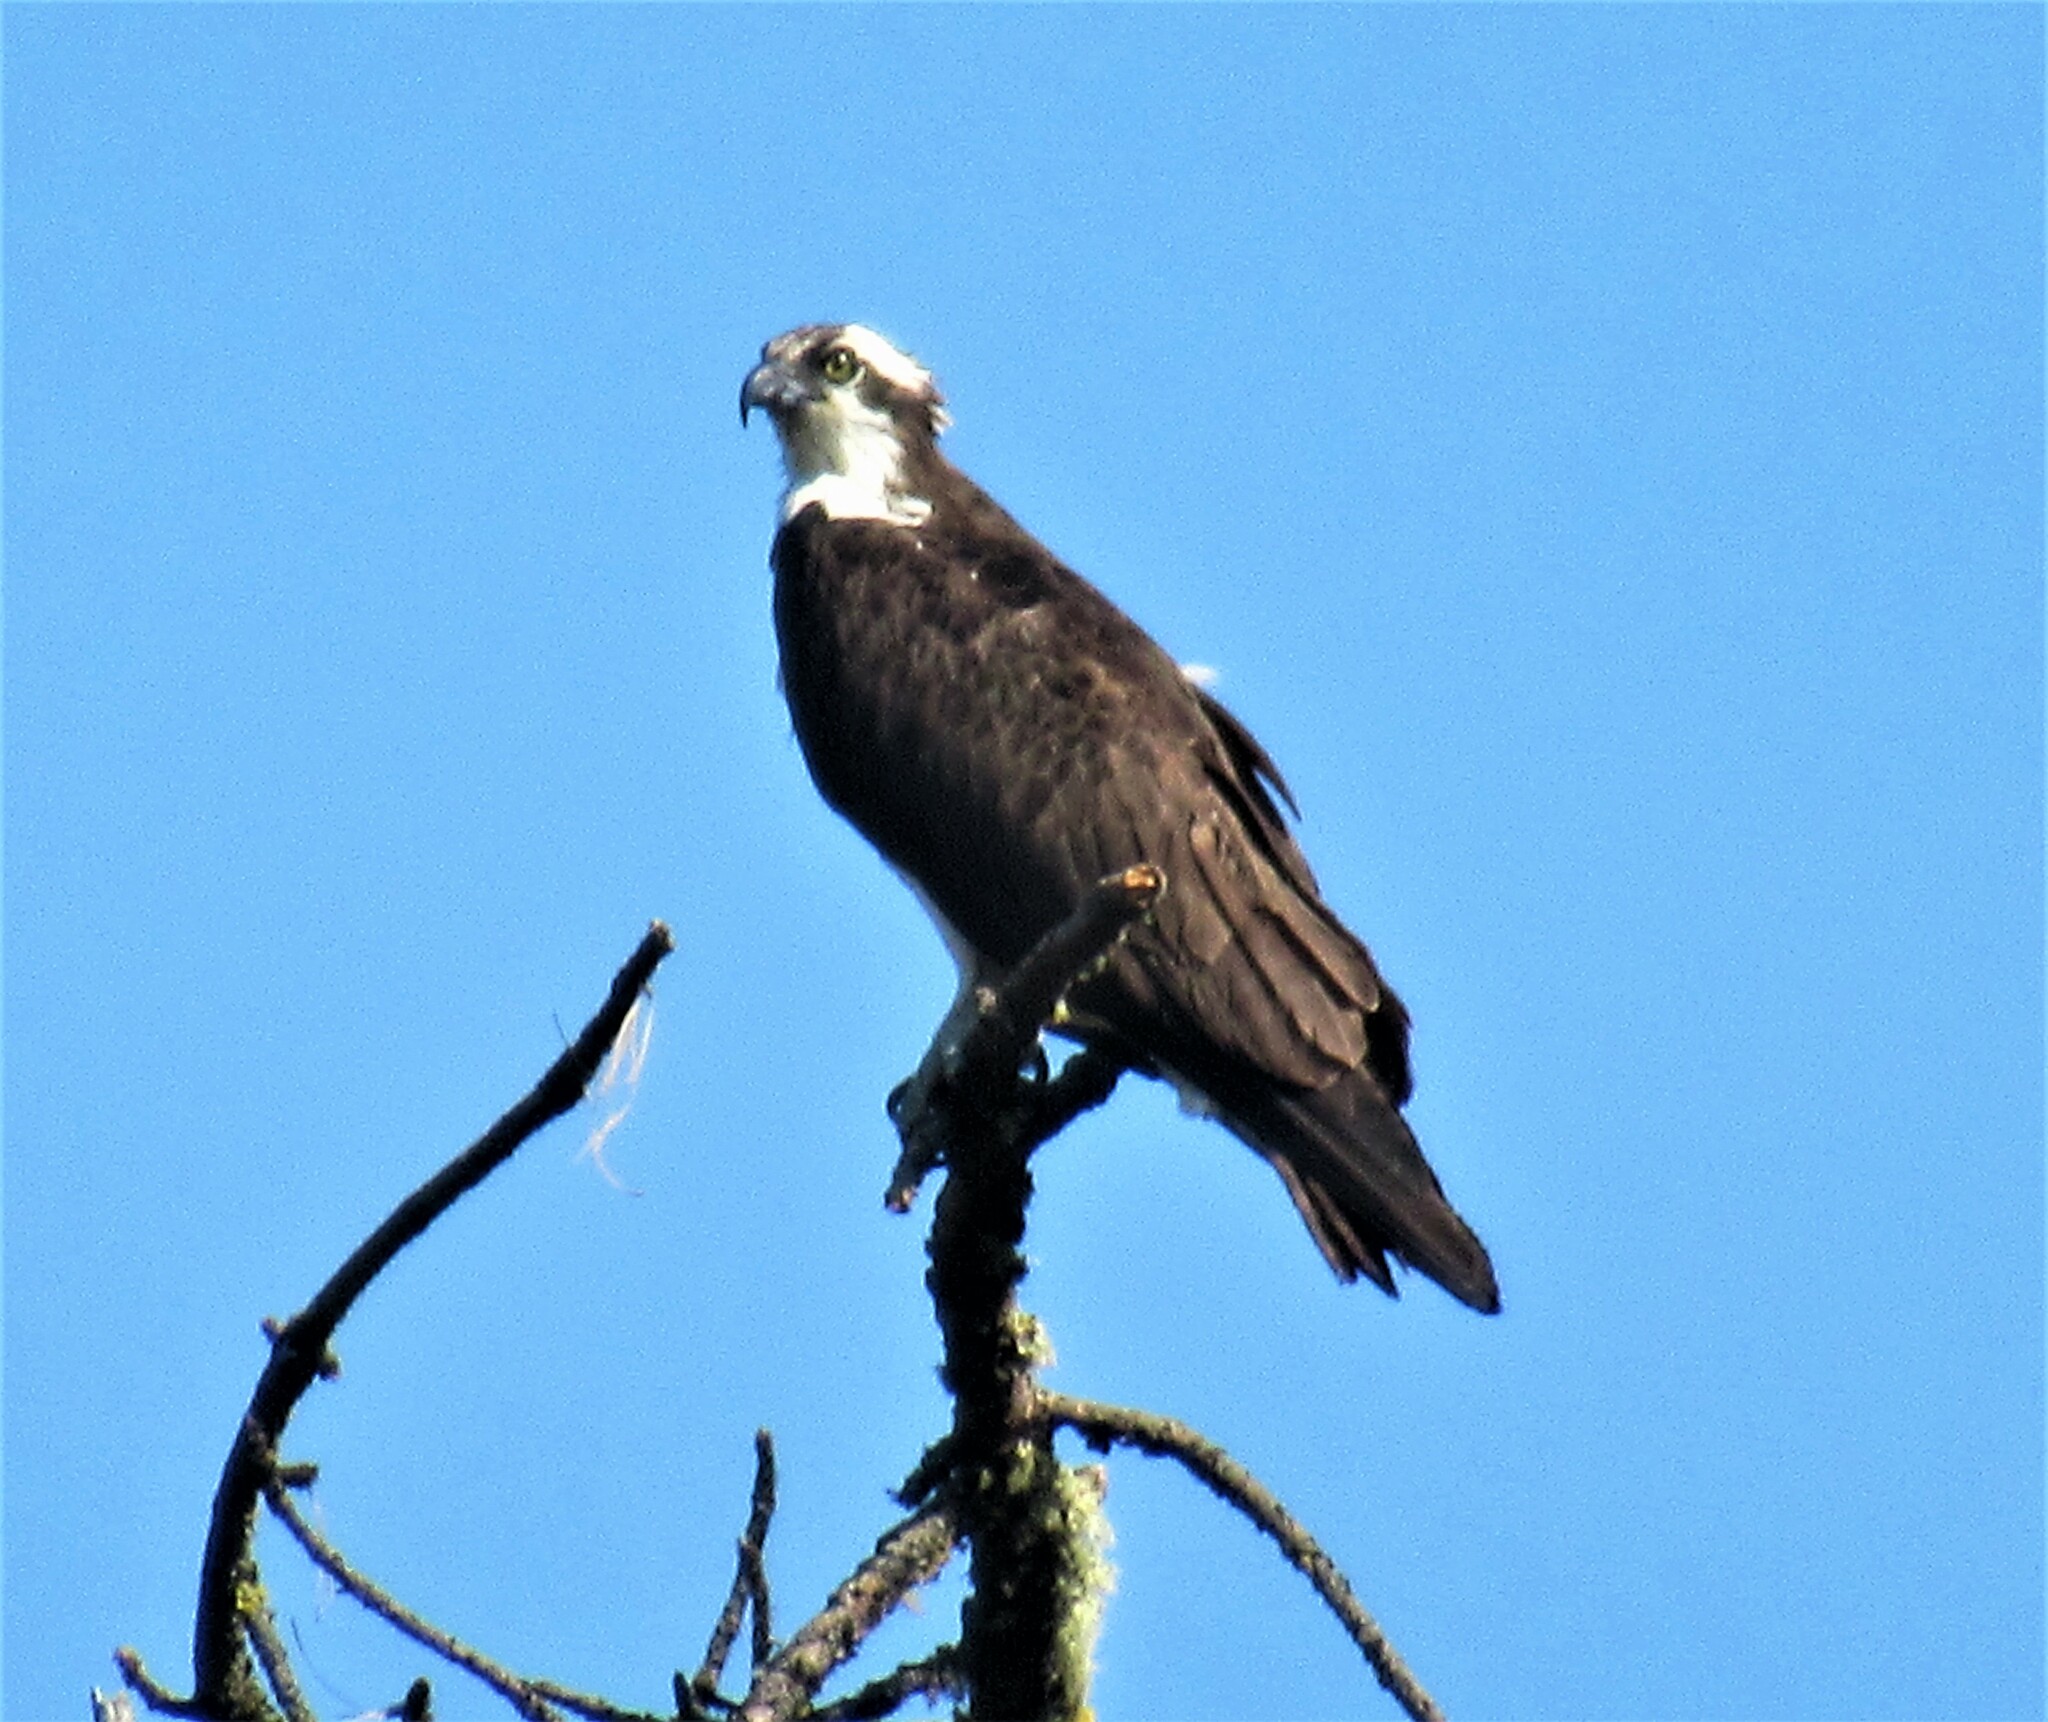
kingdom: Animalia
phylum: Chordata
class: Aves
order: Accipitriformes
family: Pandionidae
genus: Pandion
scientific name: Pandion haliaetus
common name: Osprey
